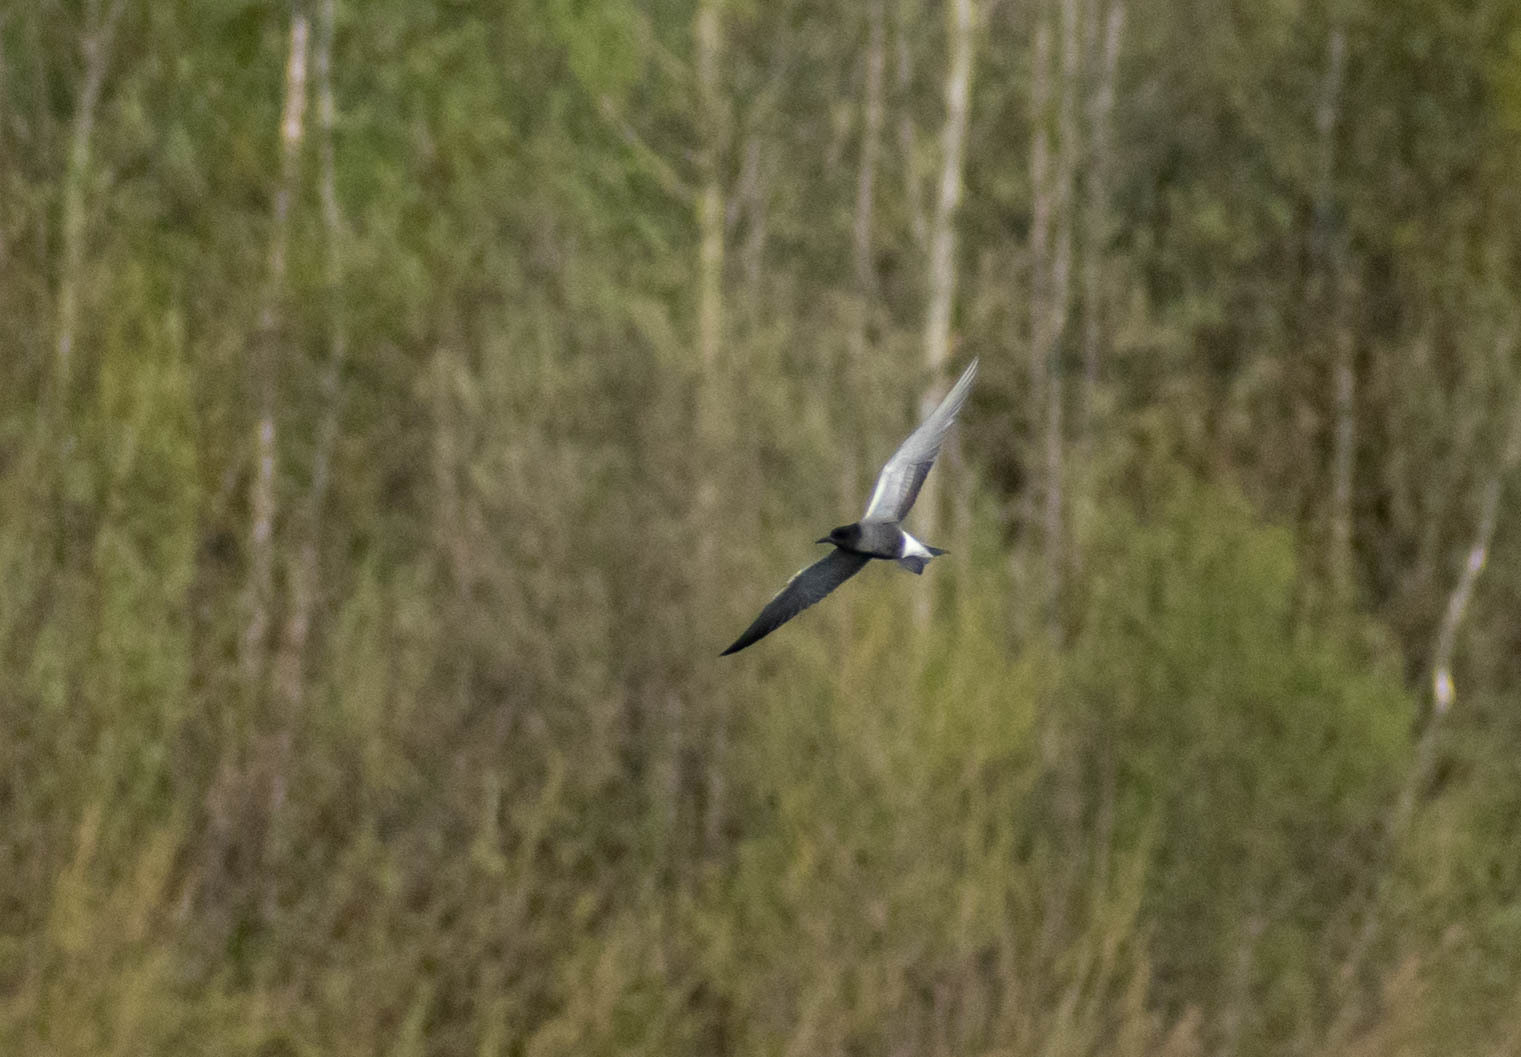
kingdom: Animalia
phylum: Chordata
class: Aves
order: Charadriiformes
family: Laridae
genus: Chlidonias
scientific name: Chlidonias niger
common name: Black tern
